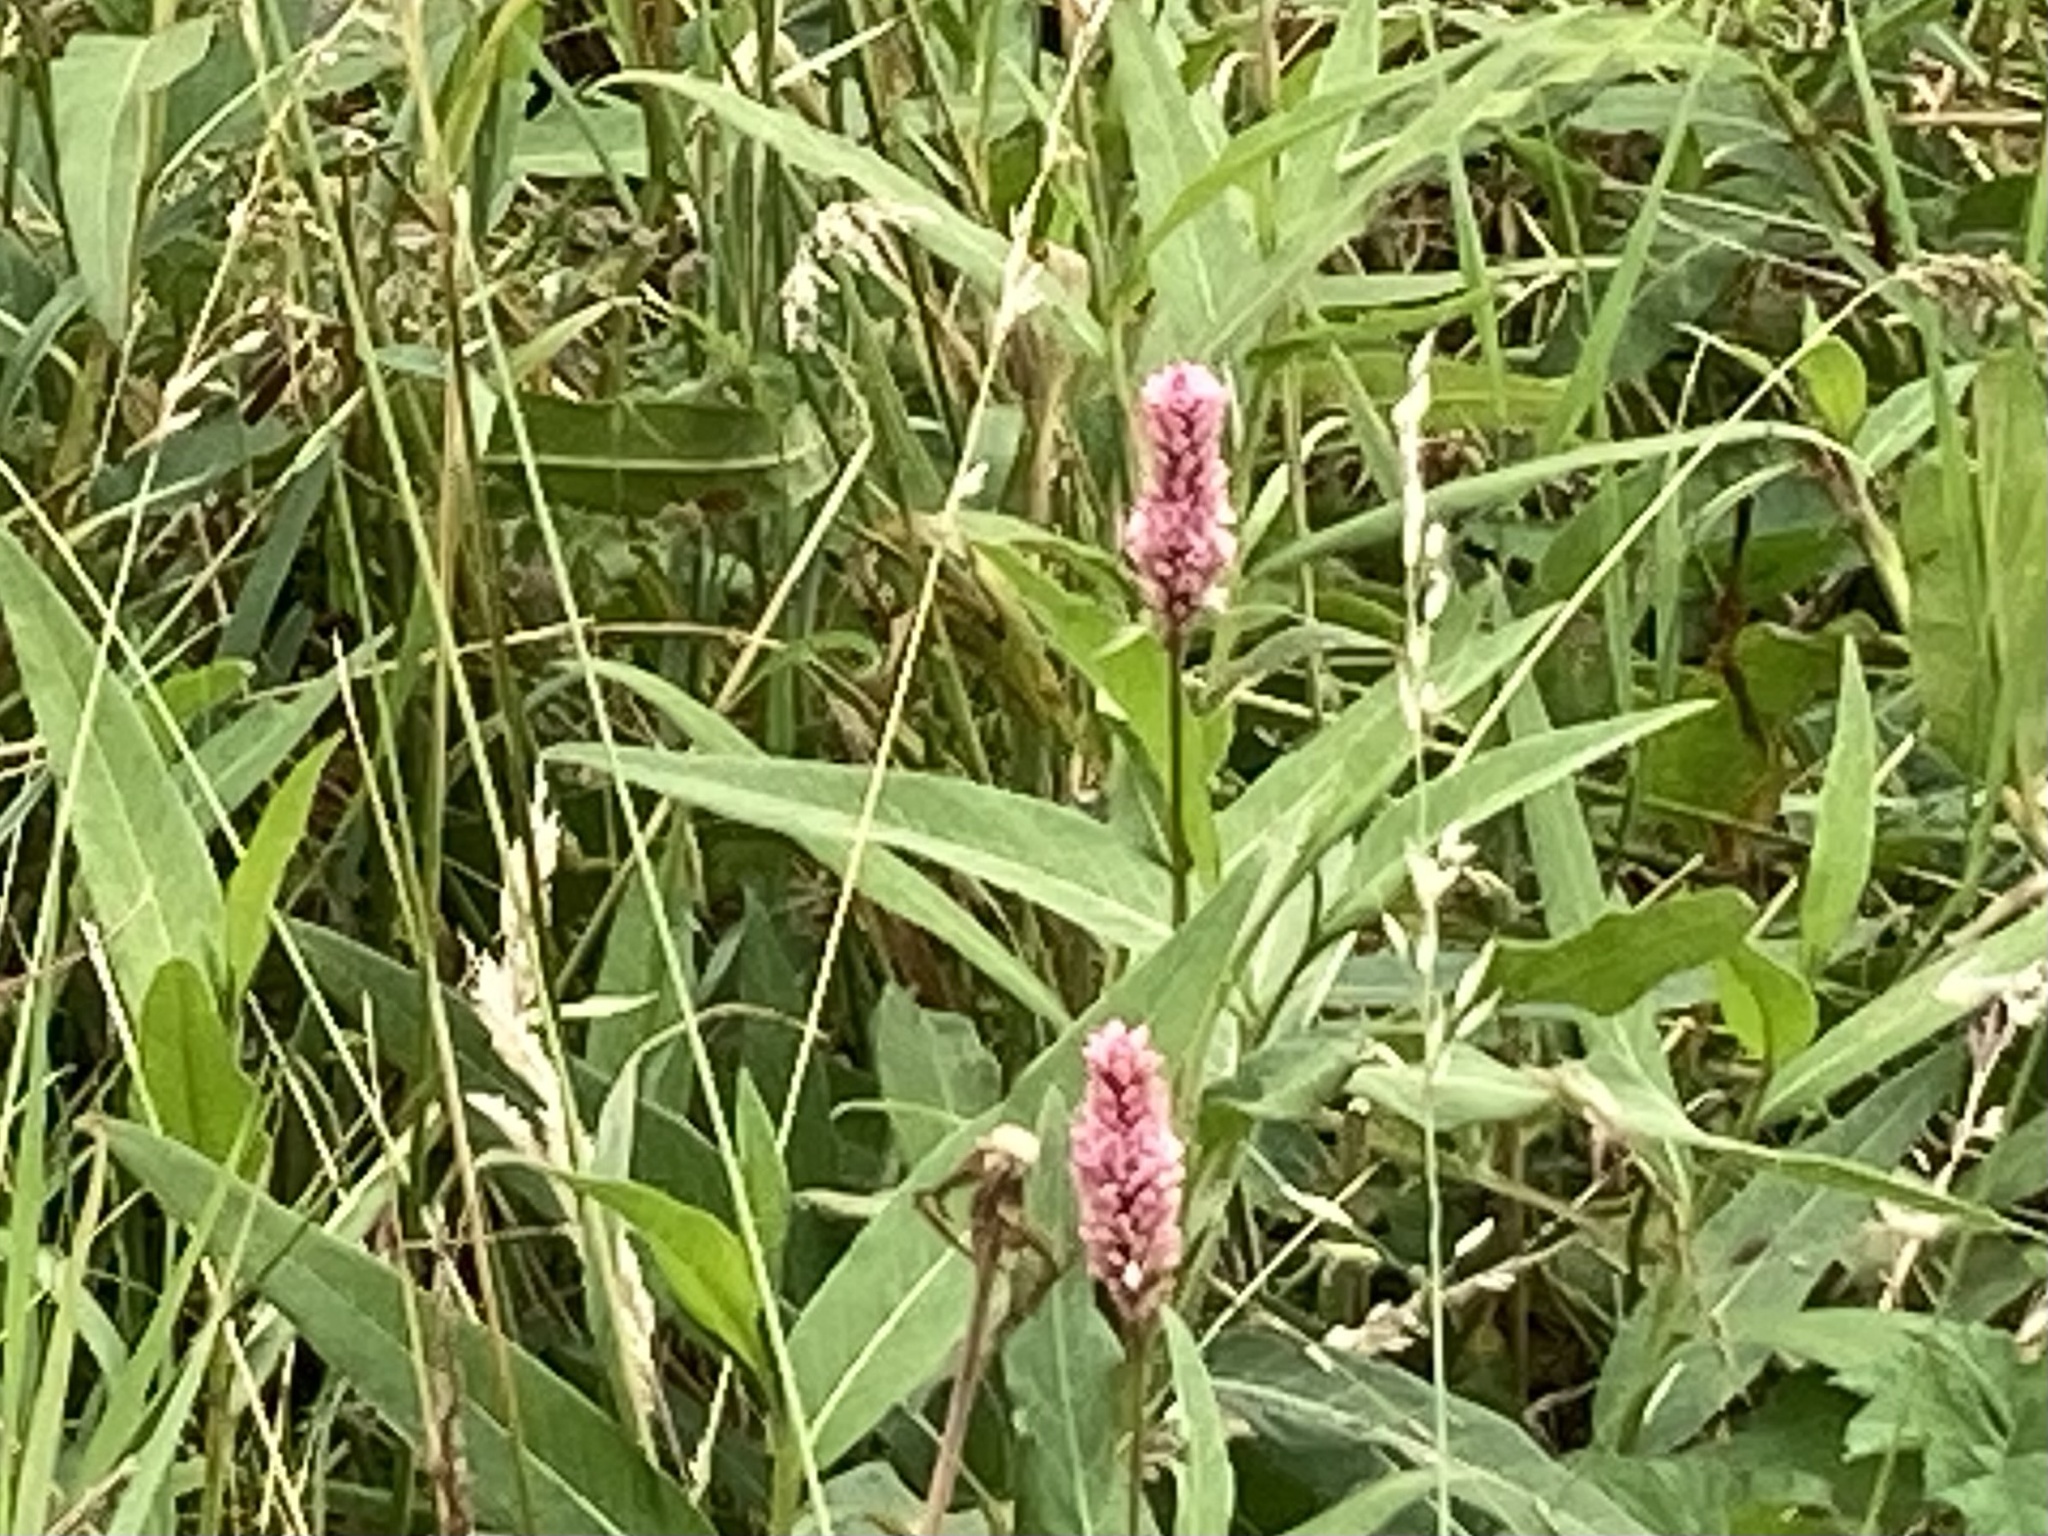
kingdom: Plantae
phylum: Tracheophyta
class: Magnoliopsida
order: Caryophyllales
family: Polygonaceae
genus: Persicaria
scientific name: Persicaria amphibia
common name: Amphibious bistort
